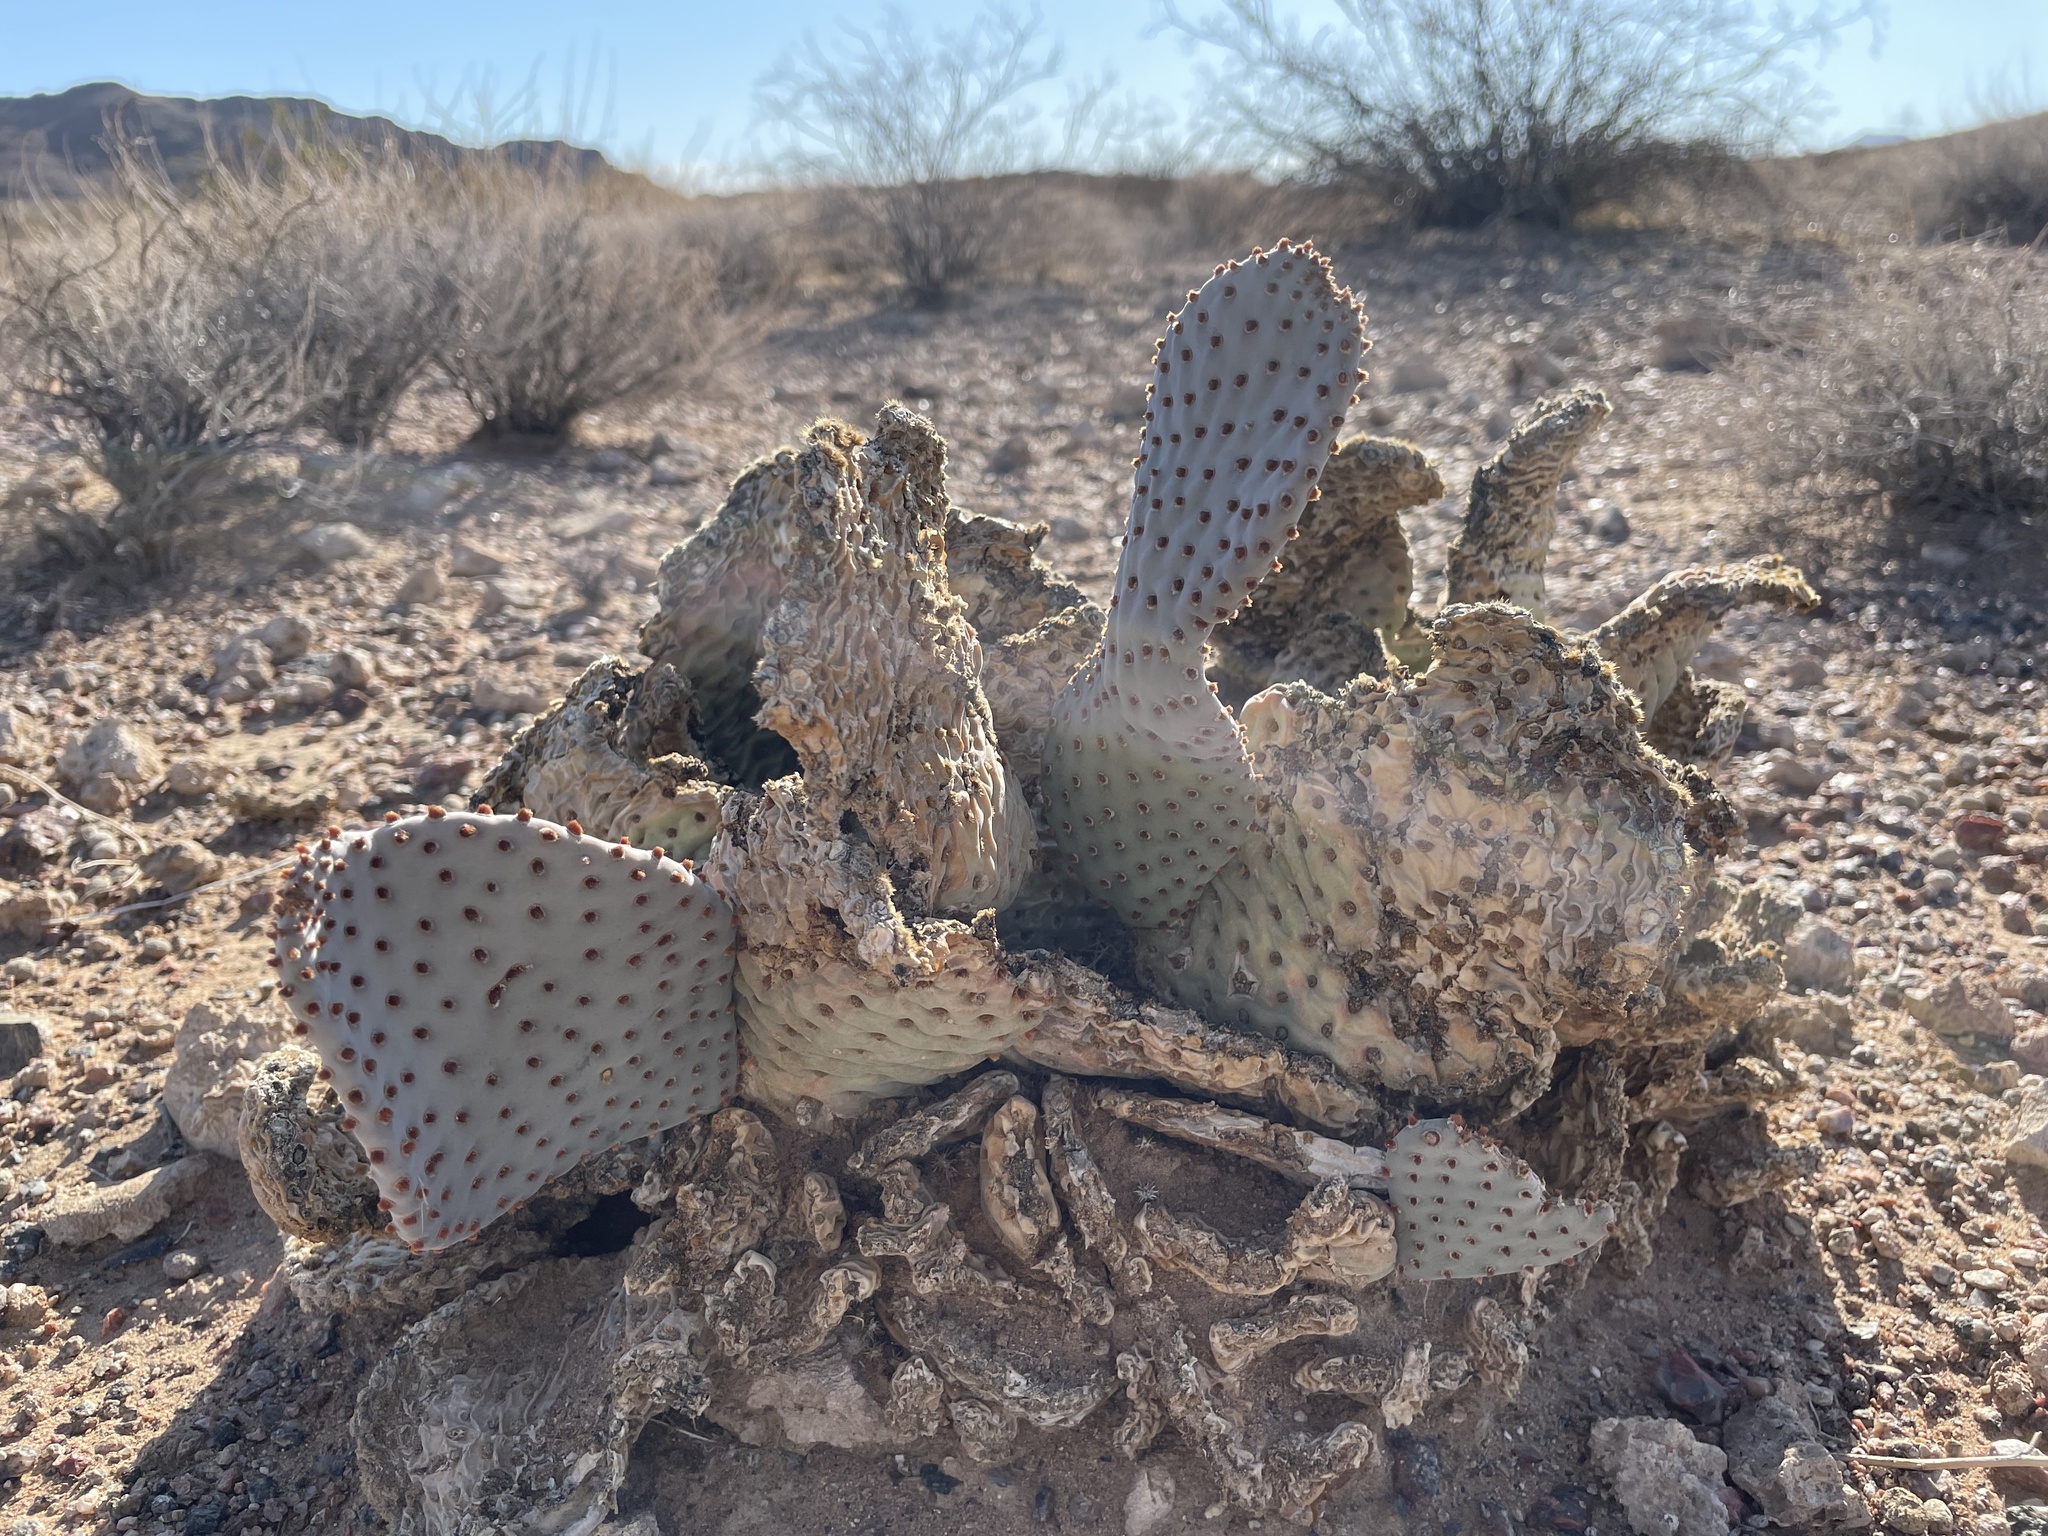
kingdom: Plantae
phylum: Tracheophyta
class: Magnoliopsida
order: Caryophyllales
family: Cactaceae
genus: Opuntia
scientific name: Opuntia basilaris
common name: Beavertail prickly-pear
